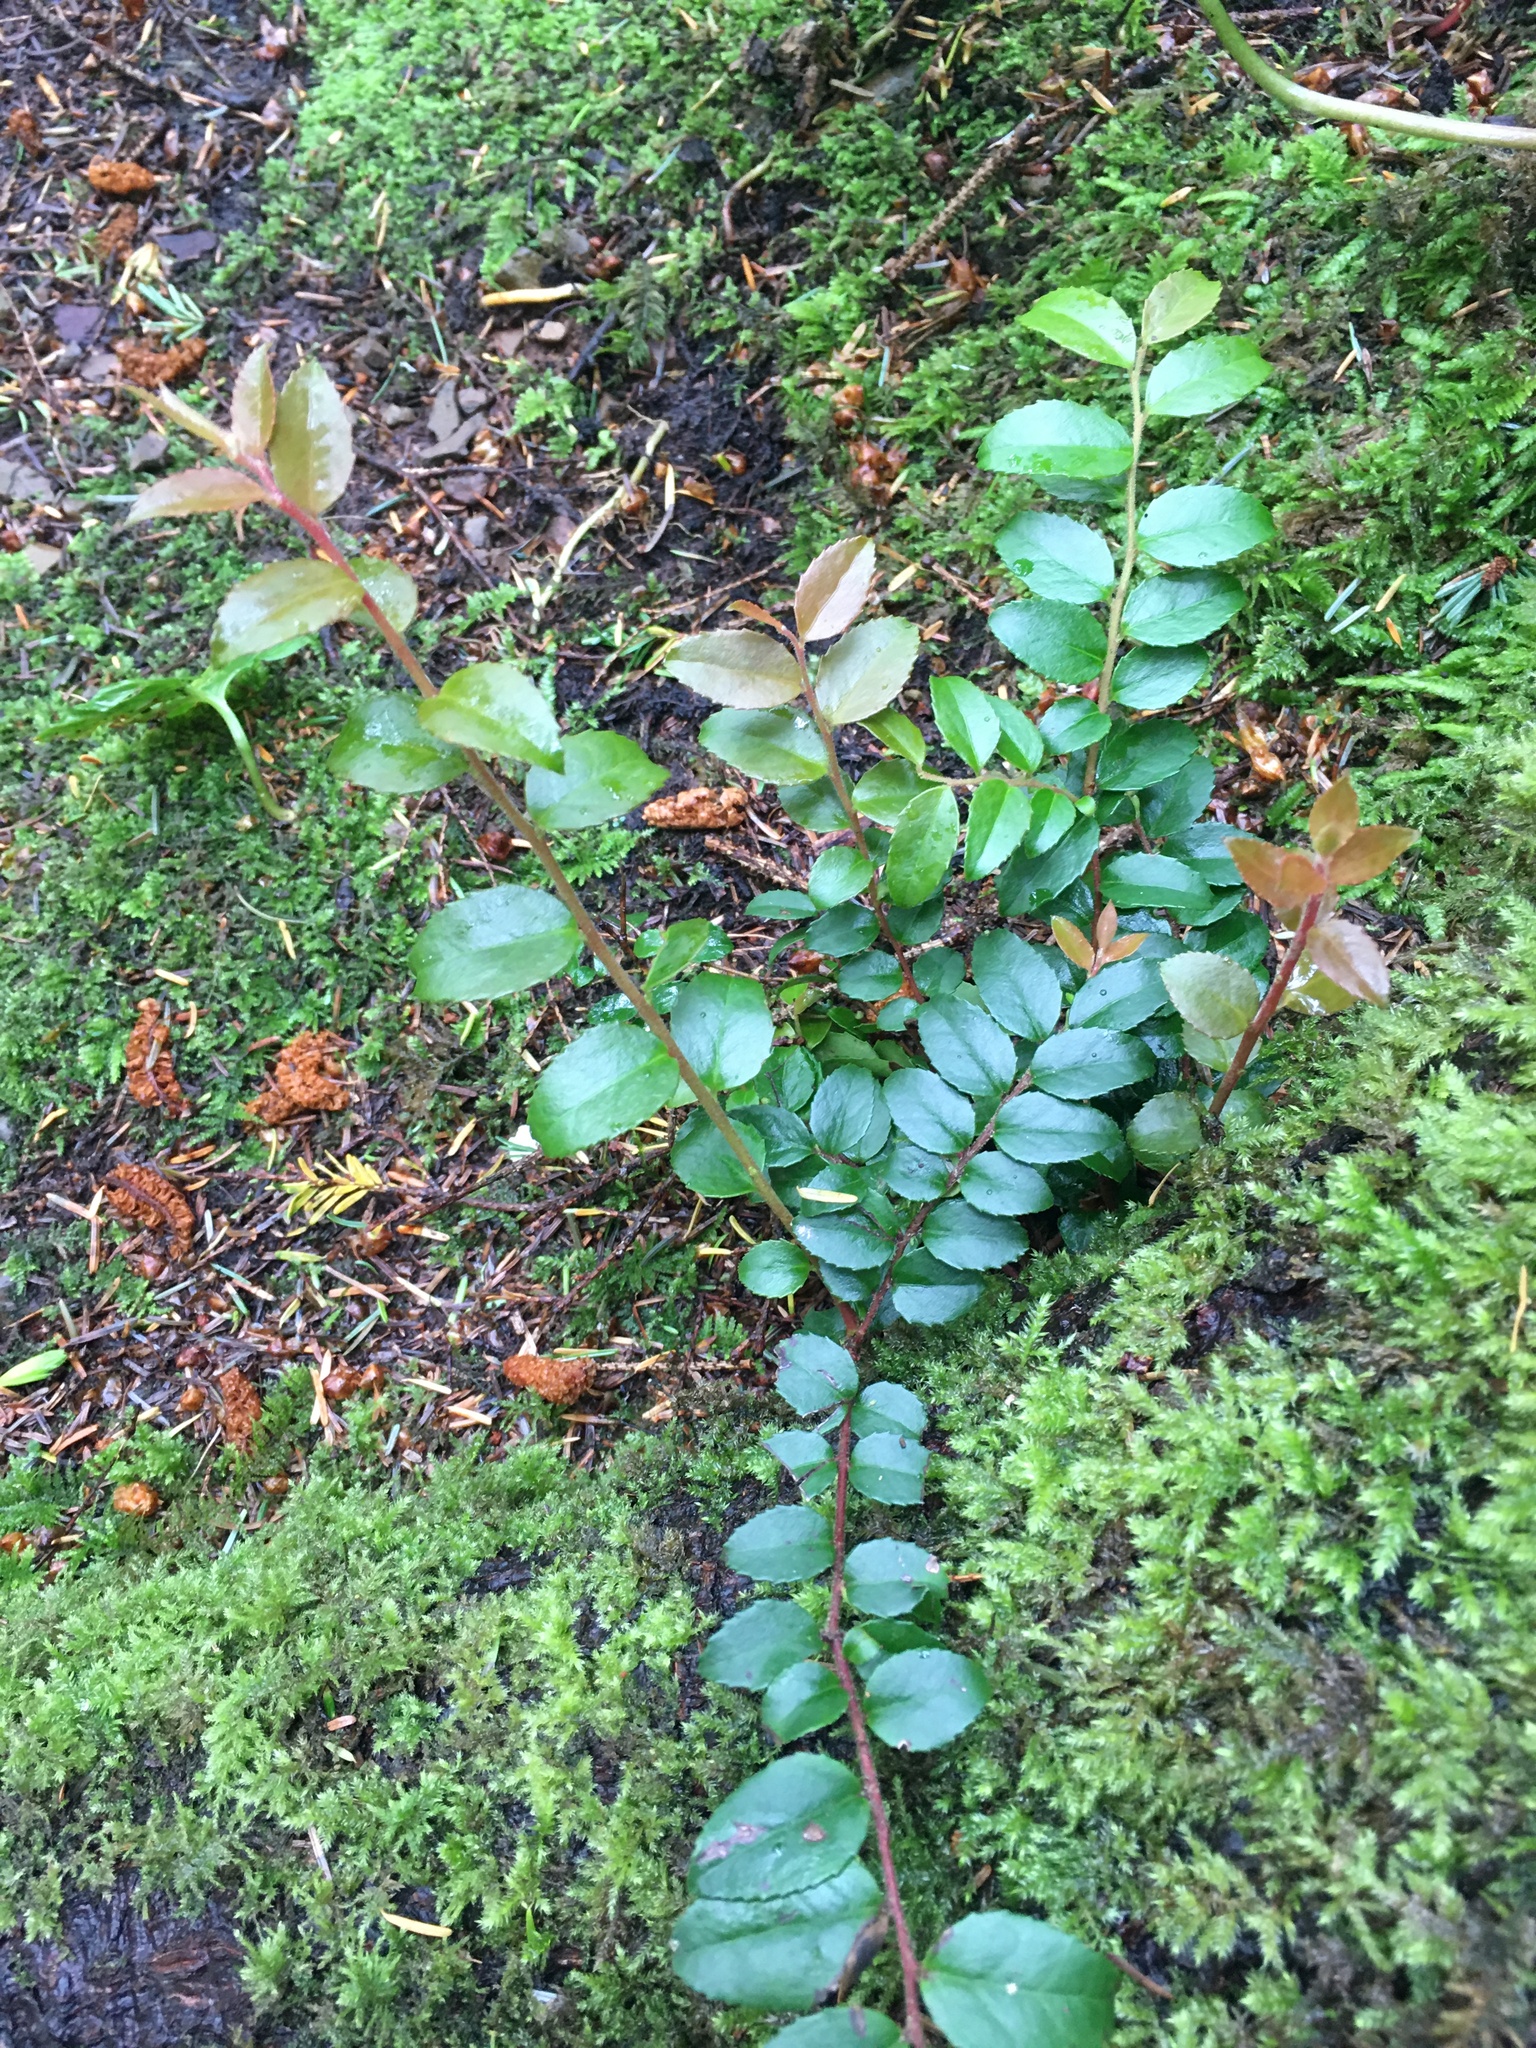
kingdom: Plantae
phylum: Tracheophyta
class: Magnoliopsida
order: Ericales
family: Ericaceae
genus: Vaccinium
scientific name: Vaccinium ovatum
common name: California-huckleberry
